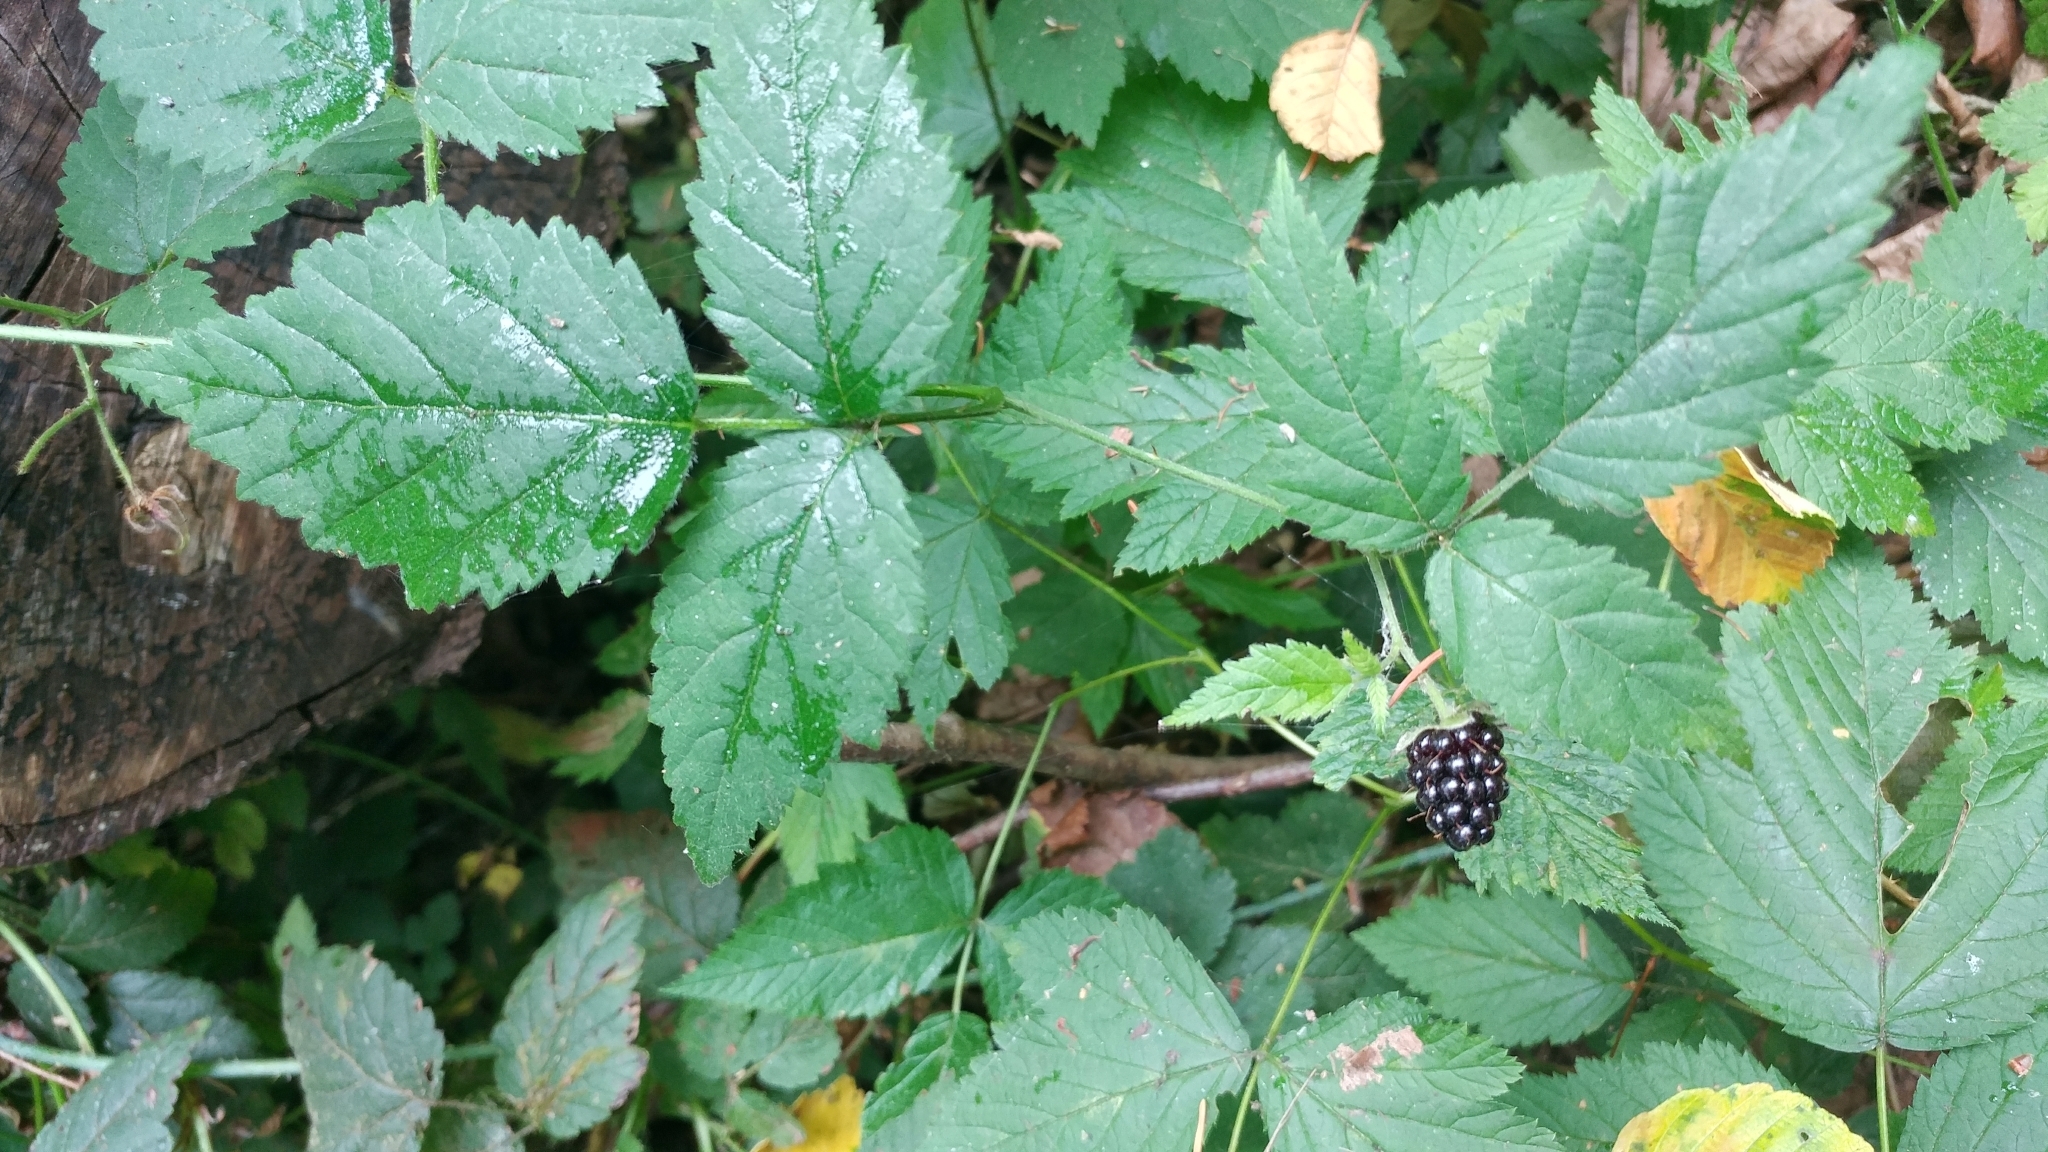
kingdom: Plantae
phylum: Tracheophyta
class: Magnoliopsida
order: Rosales
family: Rosaceae
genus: Rubus
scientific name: Rubus ursinus
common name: Pacific blackberry
